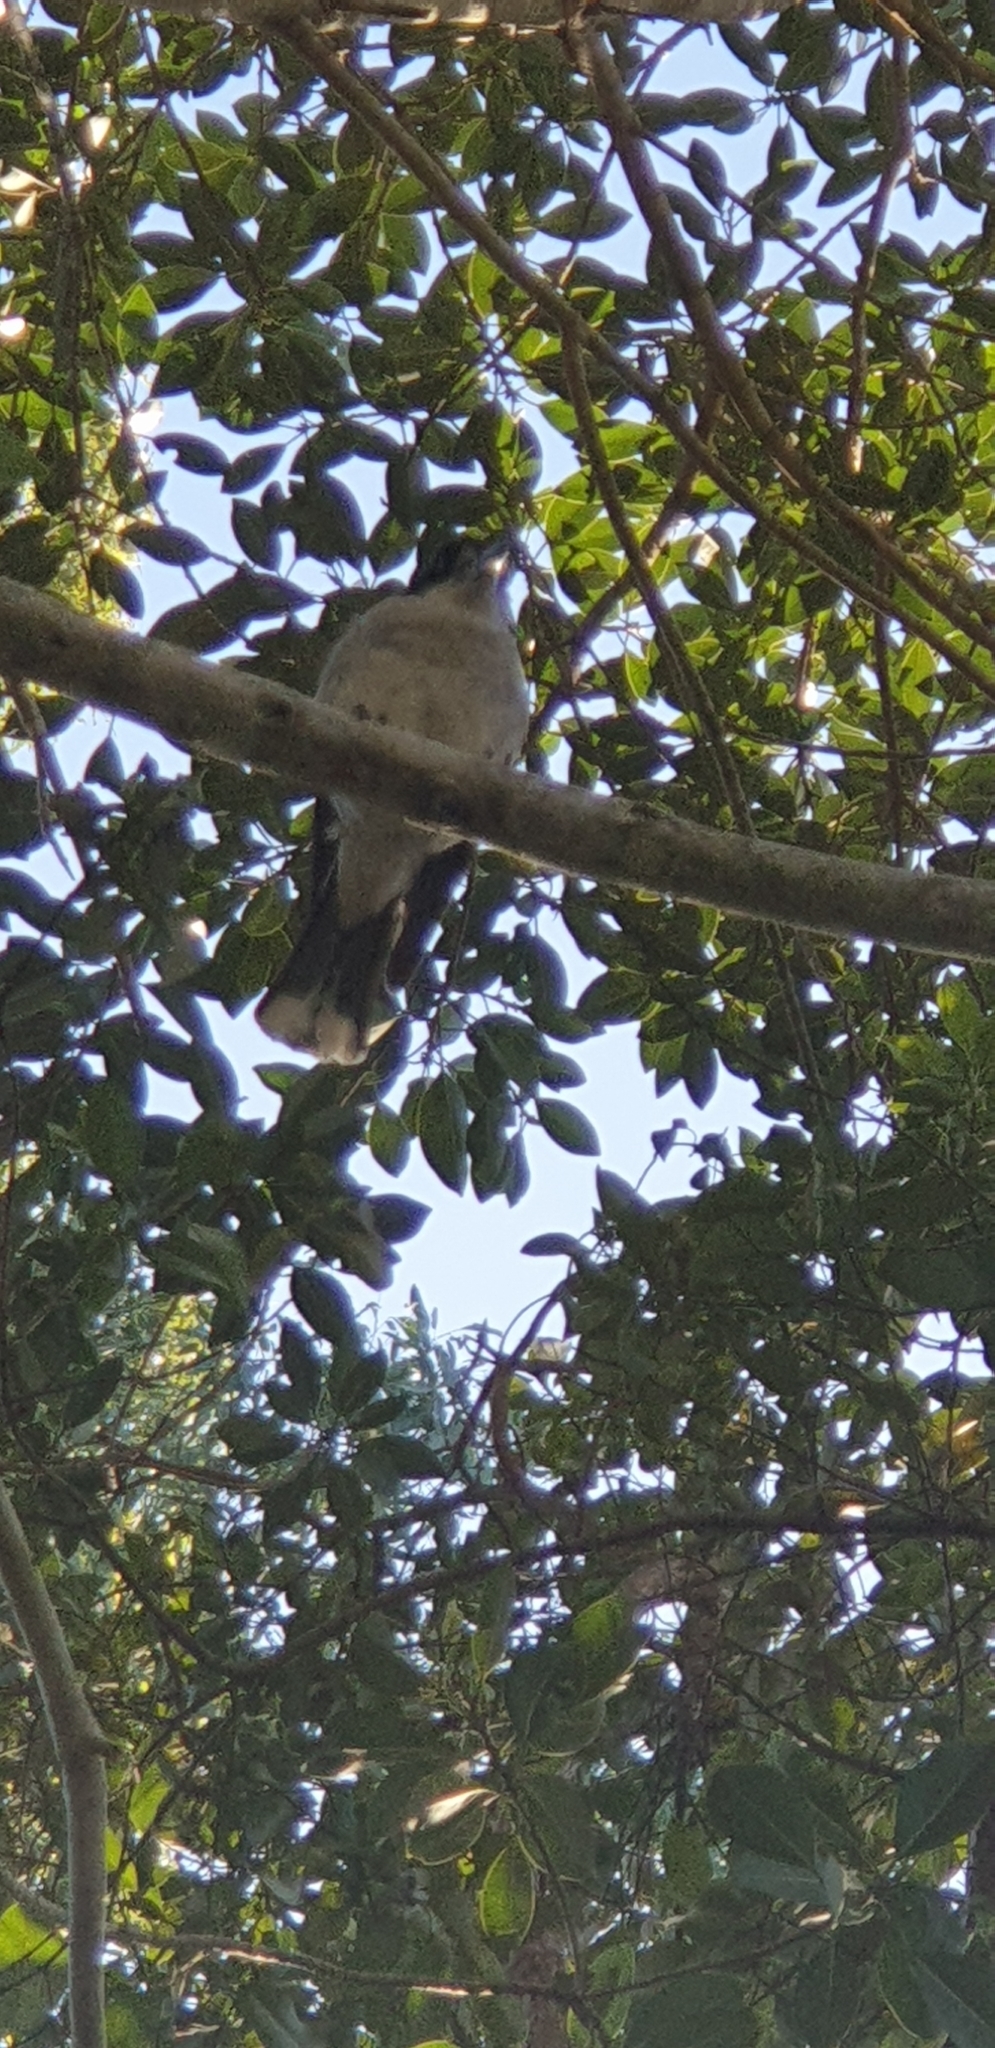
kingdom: Animalia
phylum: Chordata
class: Aves
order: Passeriformes
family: Cracticidae
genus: Cracticus
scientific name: Cracticus torquatus
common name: Grey butcherbird
